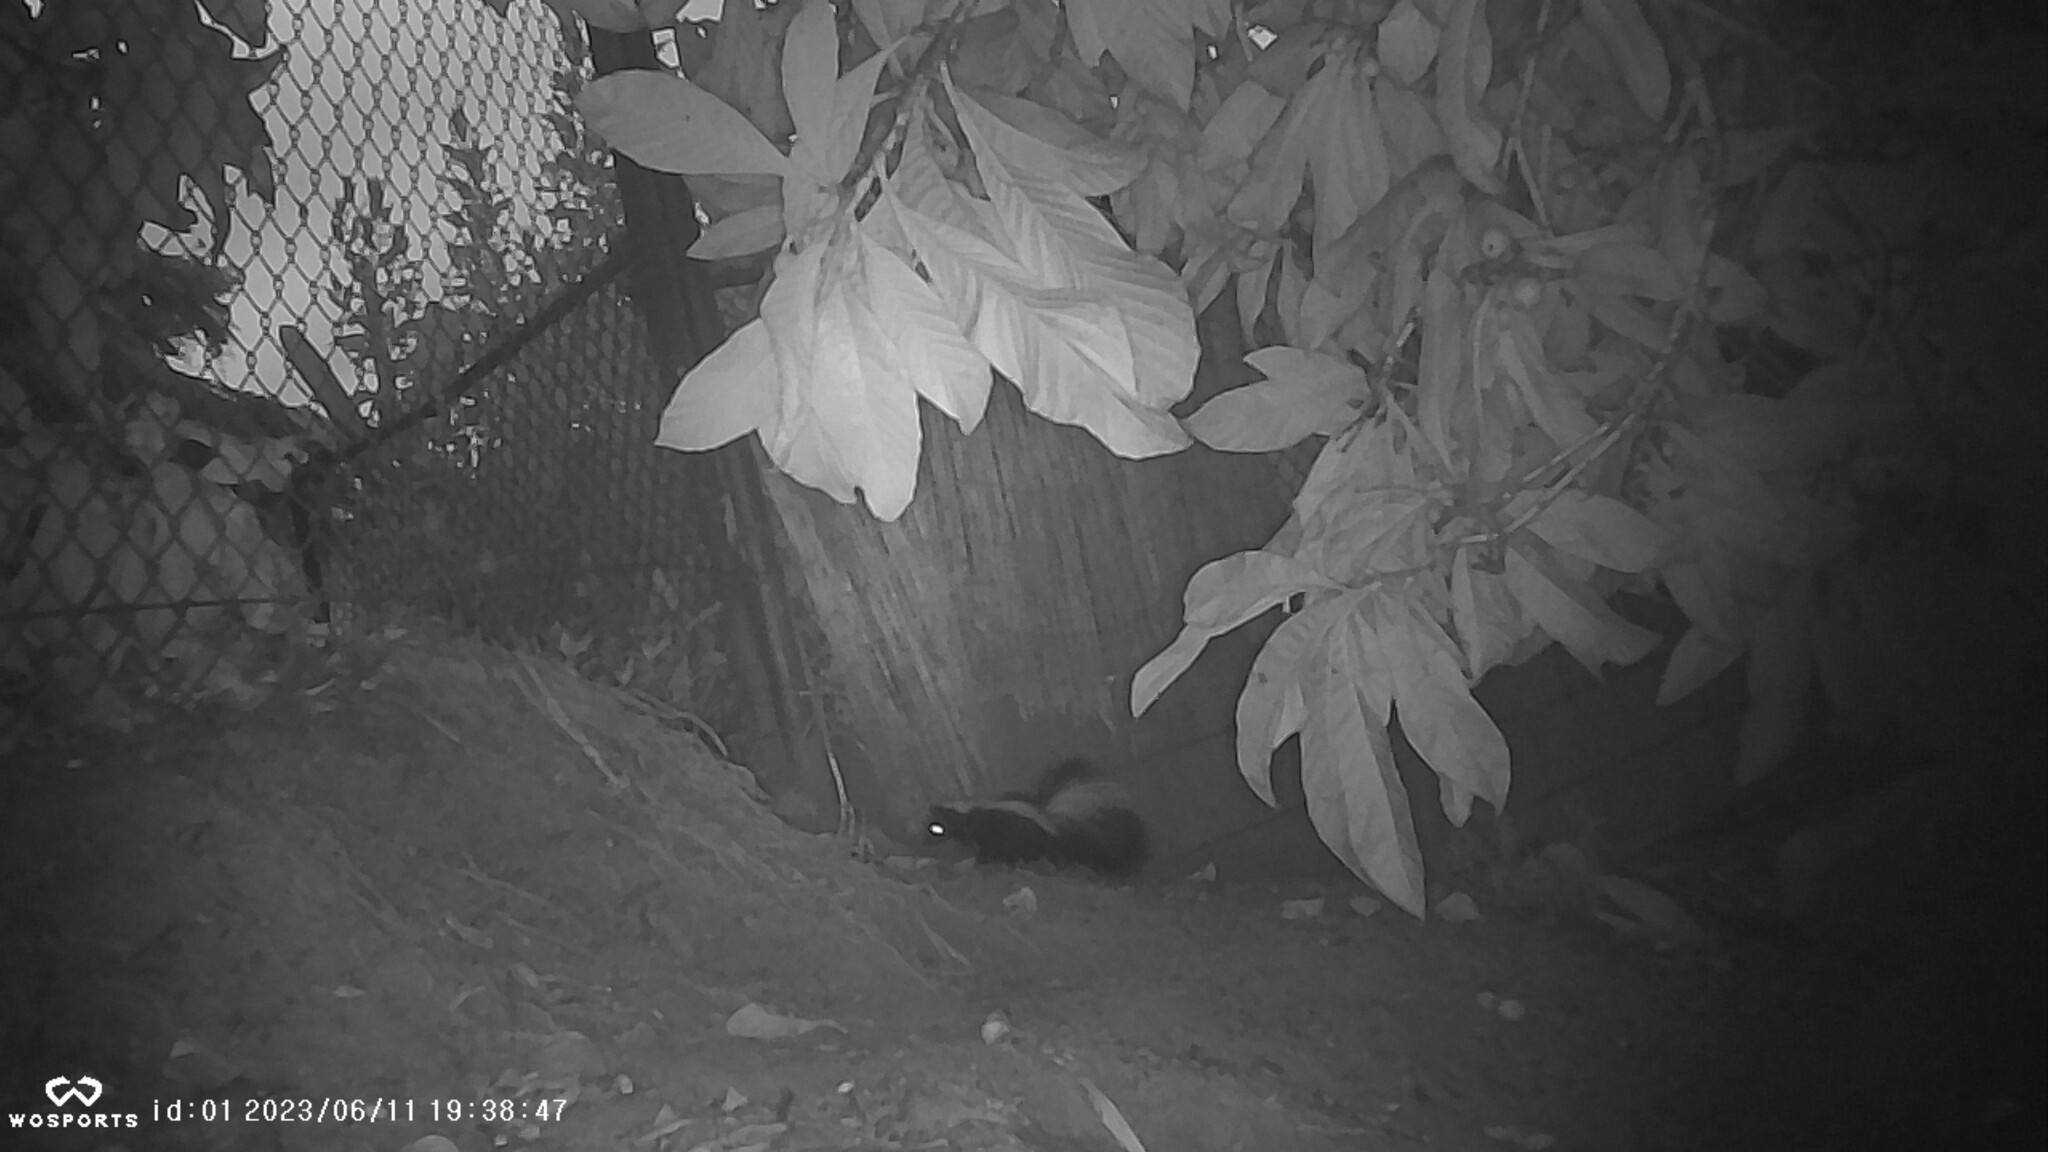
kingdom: Animalia
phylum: Chordata
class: Mammalia
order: Carnivora
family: Mephitidae
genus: Mephitis
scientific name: Mephitis mephitis
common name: Striped skunk
